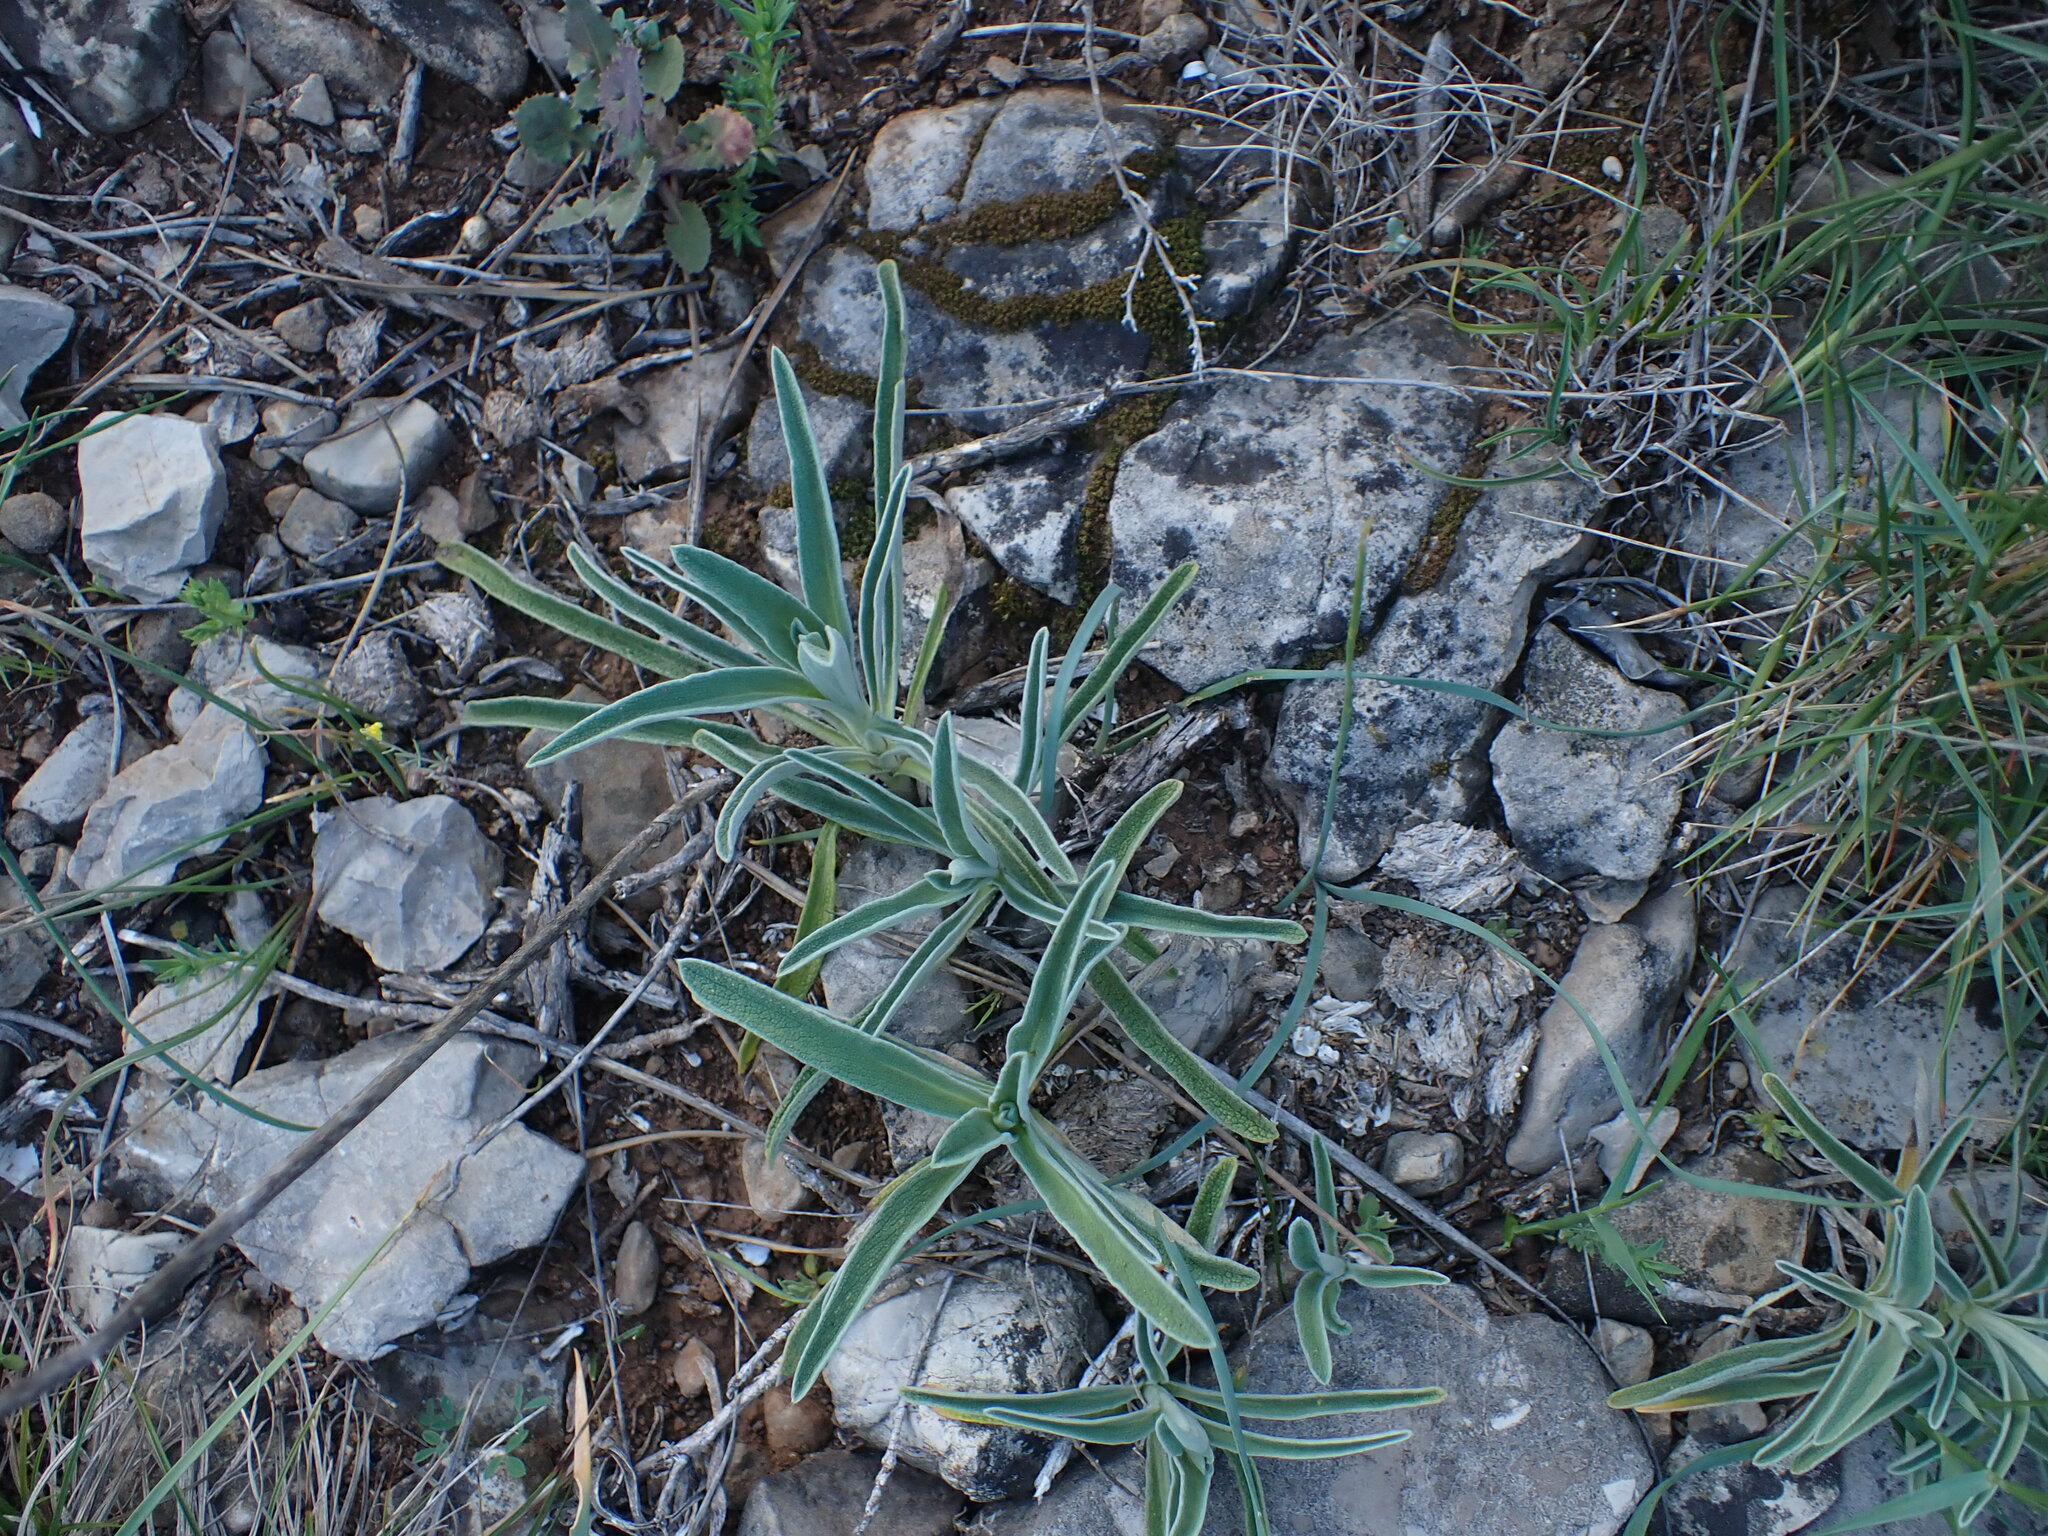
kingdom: Plantae
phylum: Tracheophyta
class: Magnoliopsida
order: Lamiales
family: Lamiaceae
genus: Phlomis
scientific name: Phlomis lychnitis
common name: Lampwickplant
